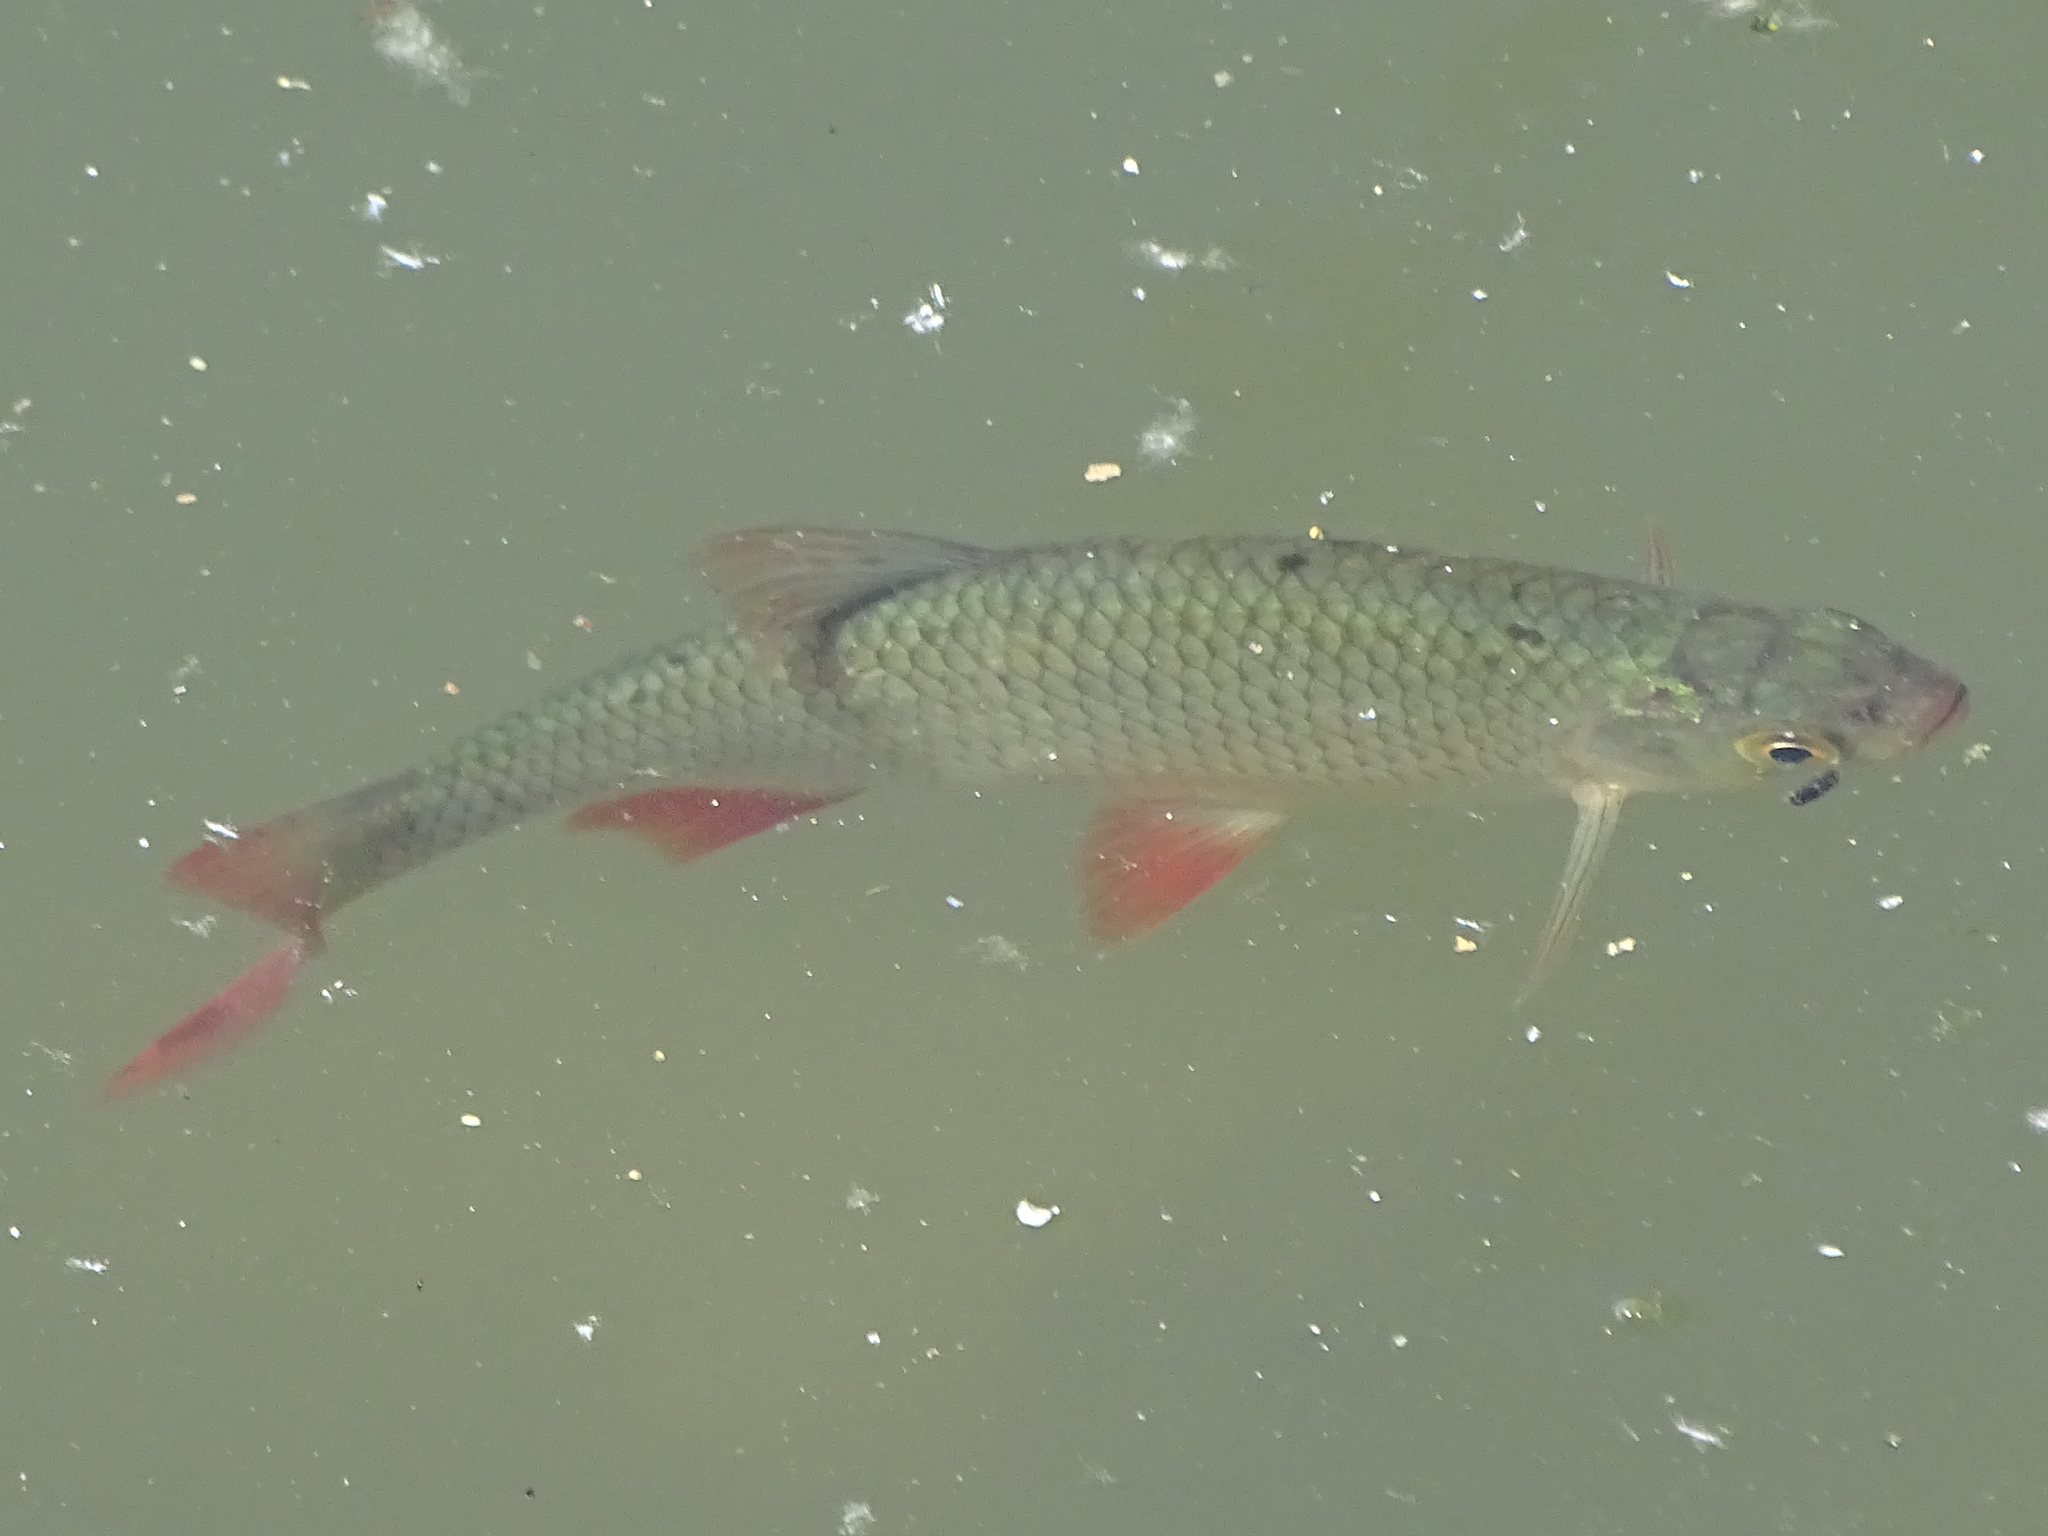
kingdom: Animalia
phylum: Chordata
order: Cypriniformes
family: Cyprinidae
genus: Scardinius
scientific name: Scardinius erythrophthalmus
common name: Rudd
